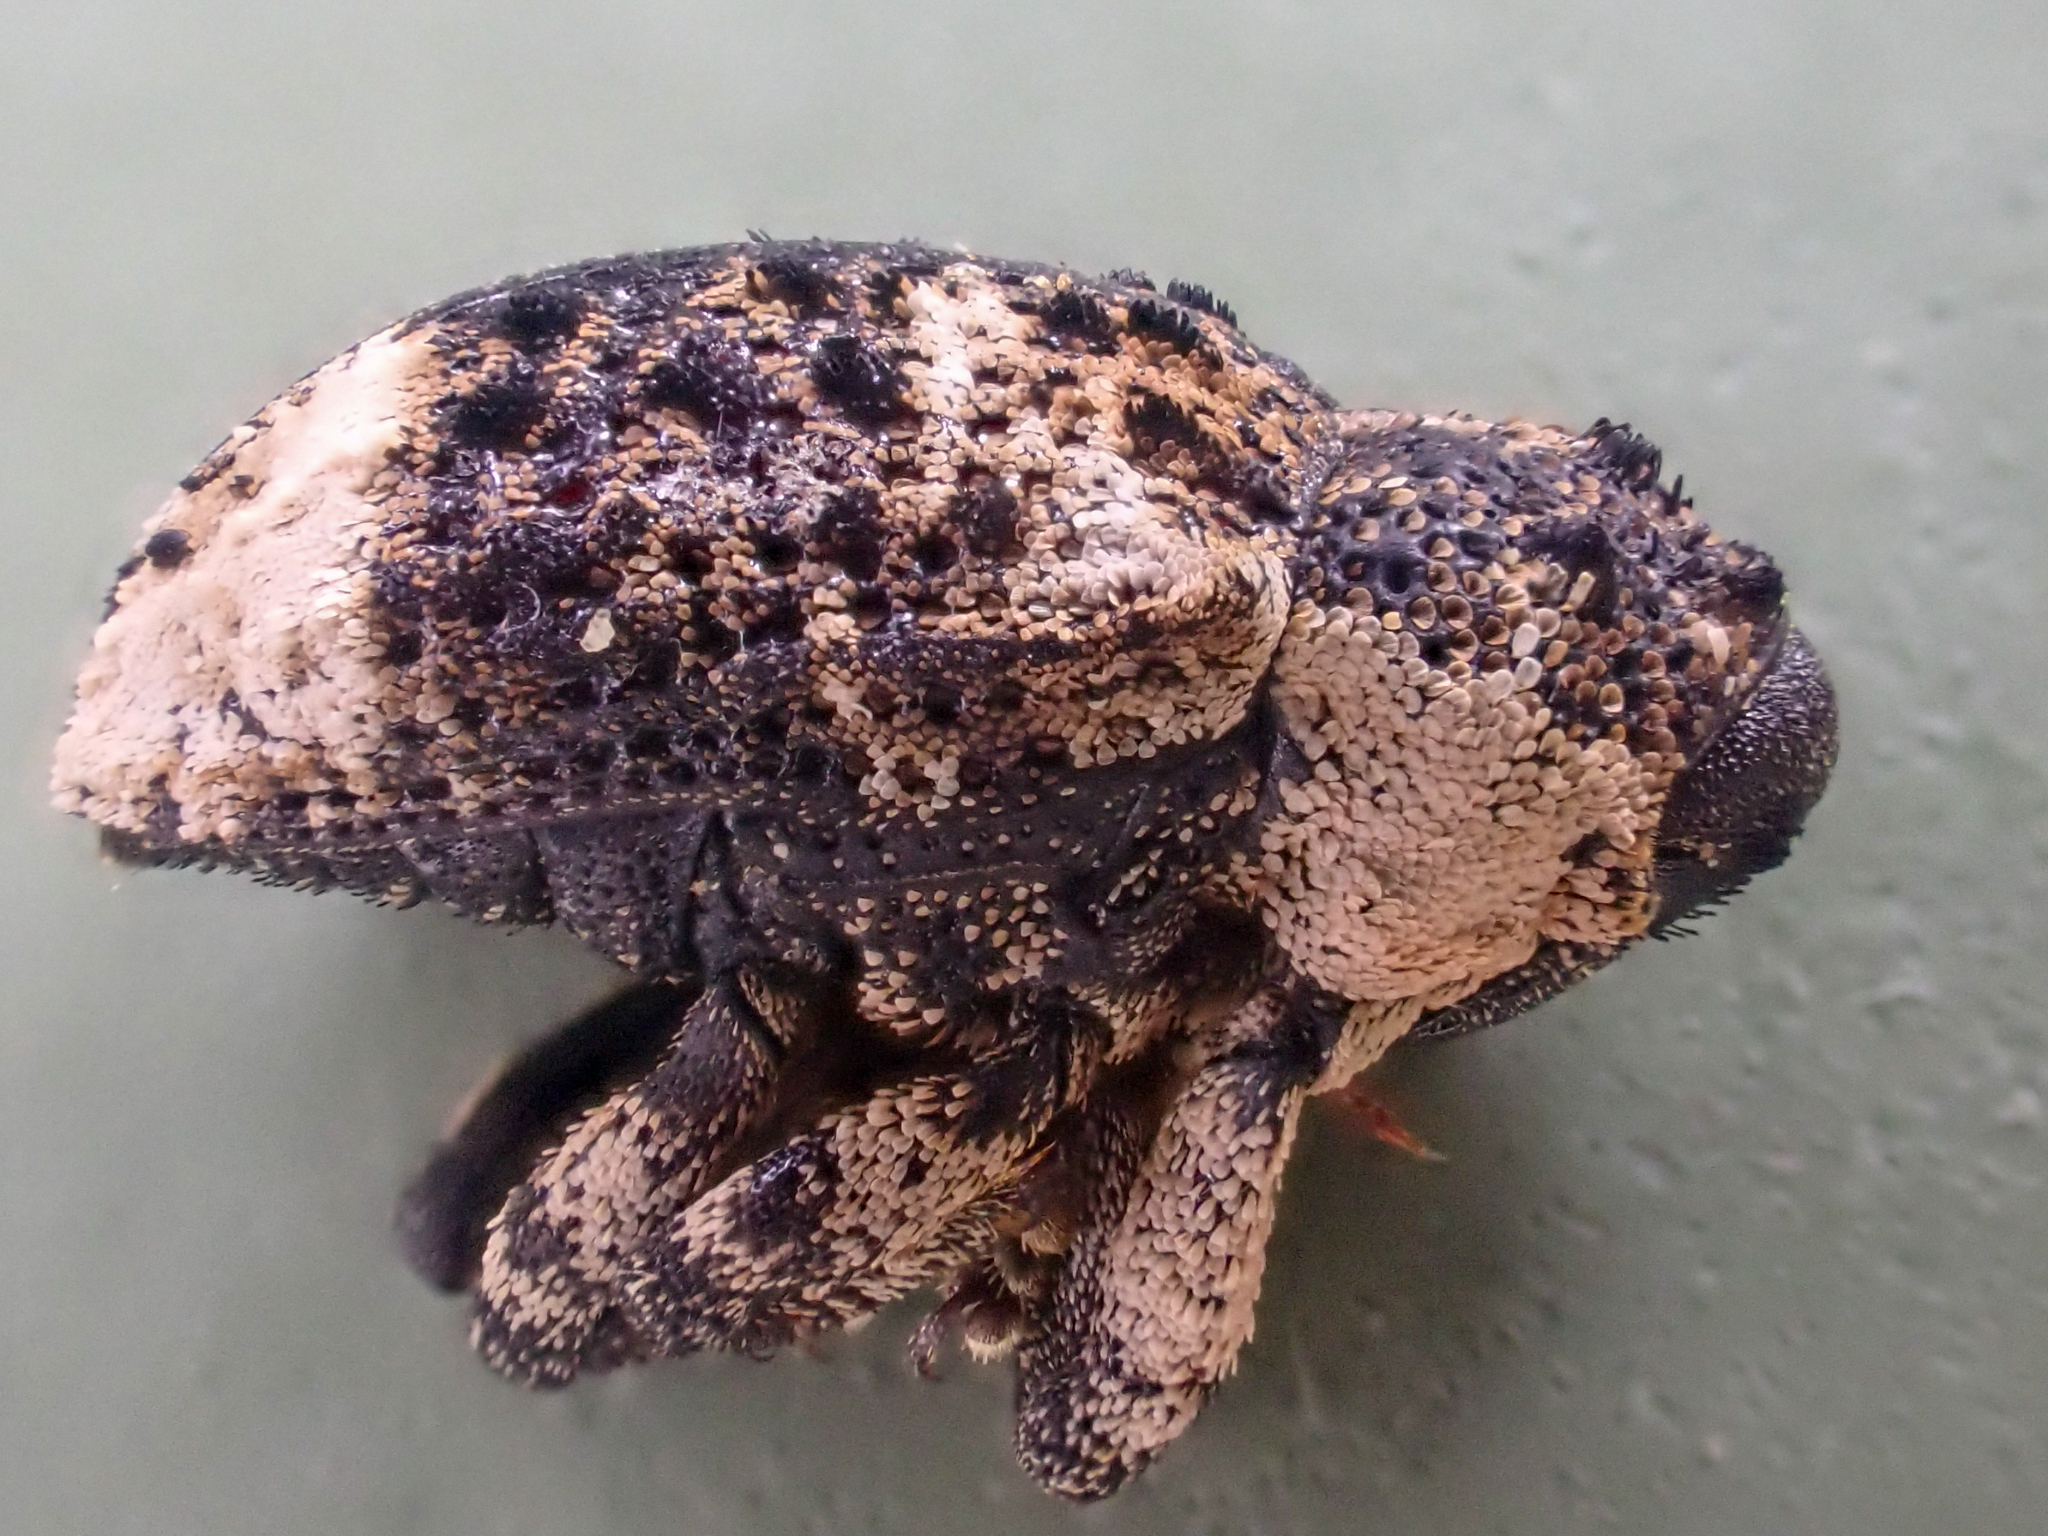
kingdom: Animalia
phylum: Arthropoda
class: Insecta
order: Coleoptera
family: Curculionidae
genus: Cryptorhynchus
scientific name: Cryptorhynchus lapathi
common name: Weevil
